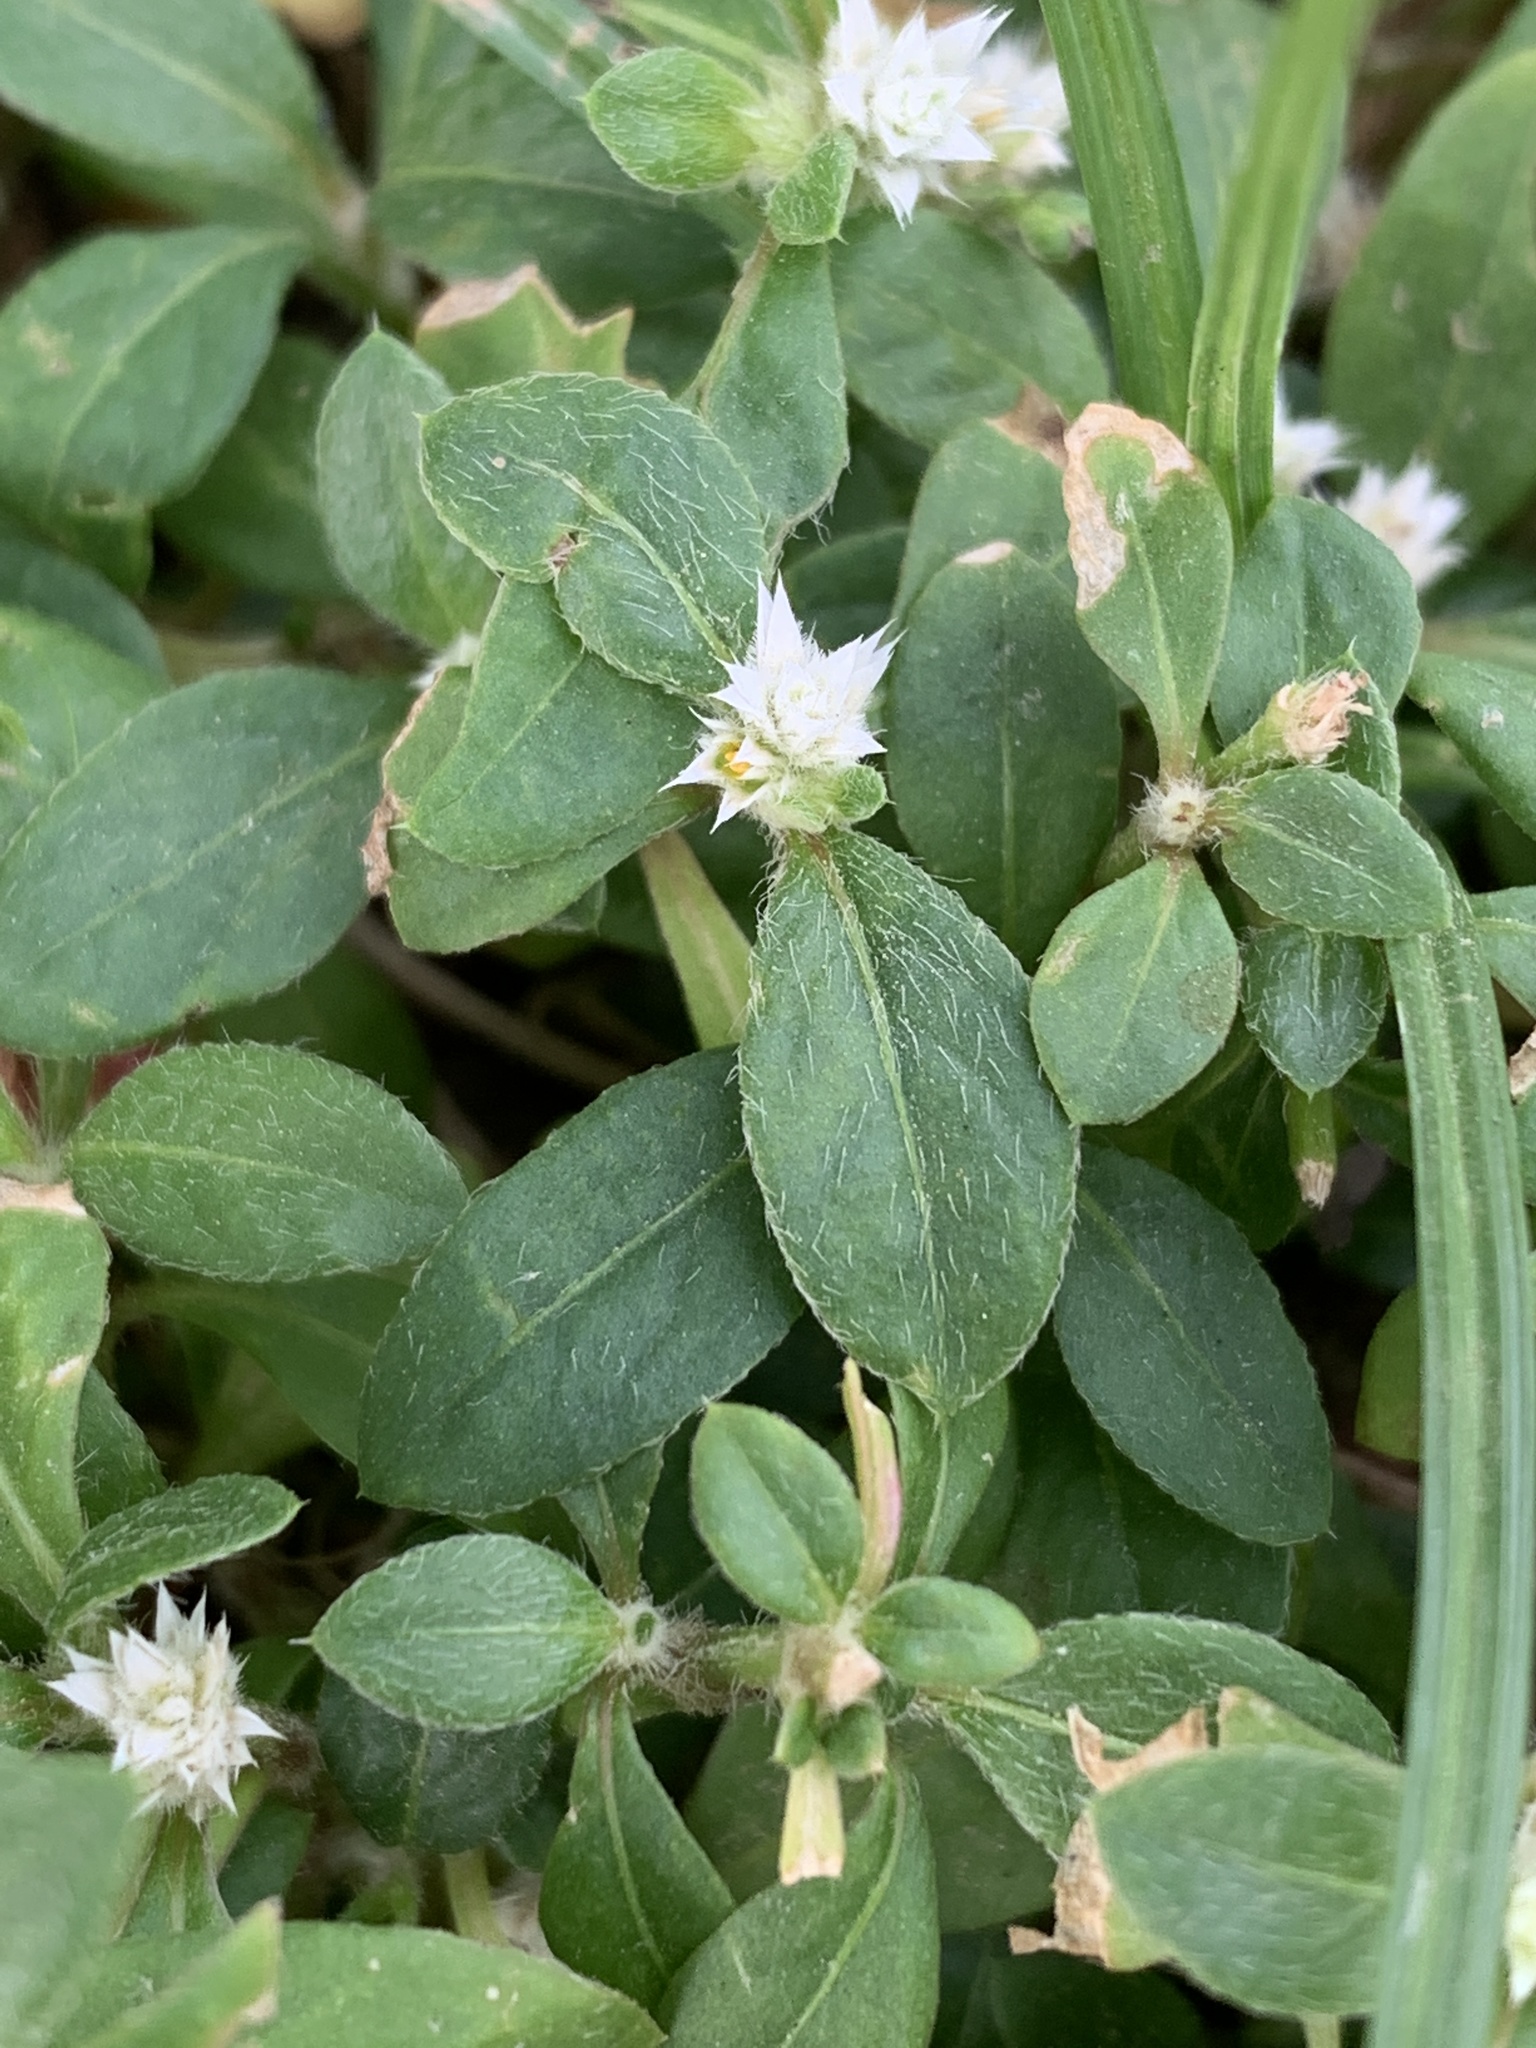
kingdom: Plantae
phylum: Tracheophyta
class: Magnoliopsida
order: Caryophyllales
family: Amaranthaceae
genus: Alternanthera
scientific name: Alternanthera bettzickiana
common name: Calico-plant
